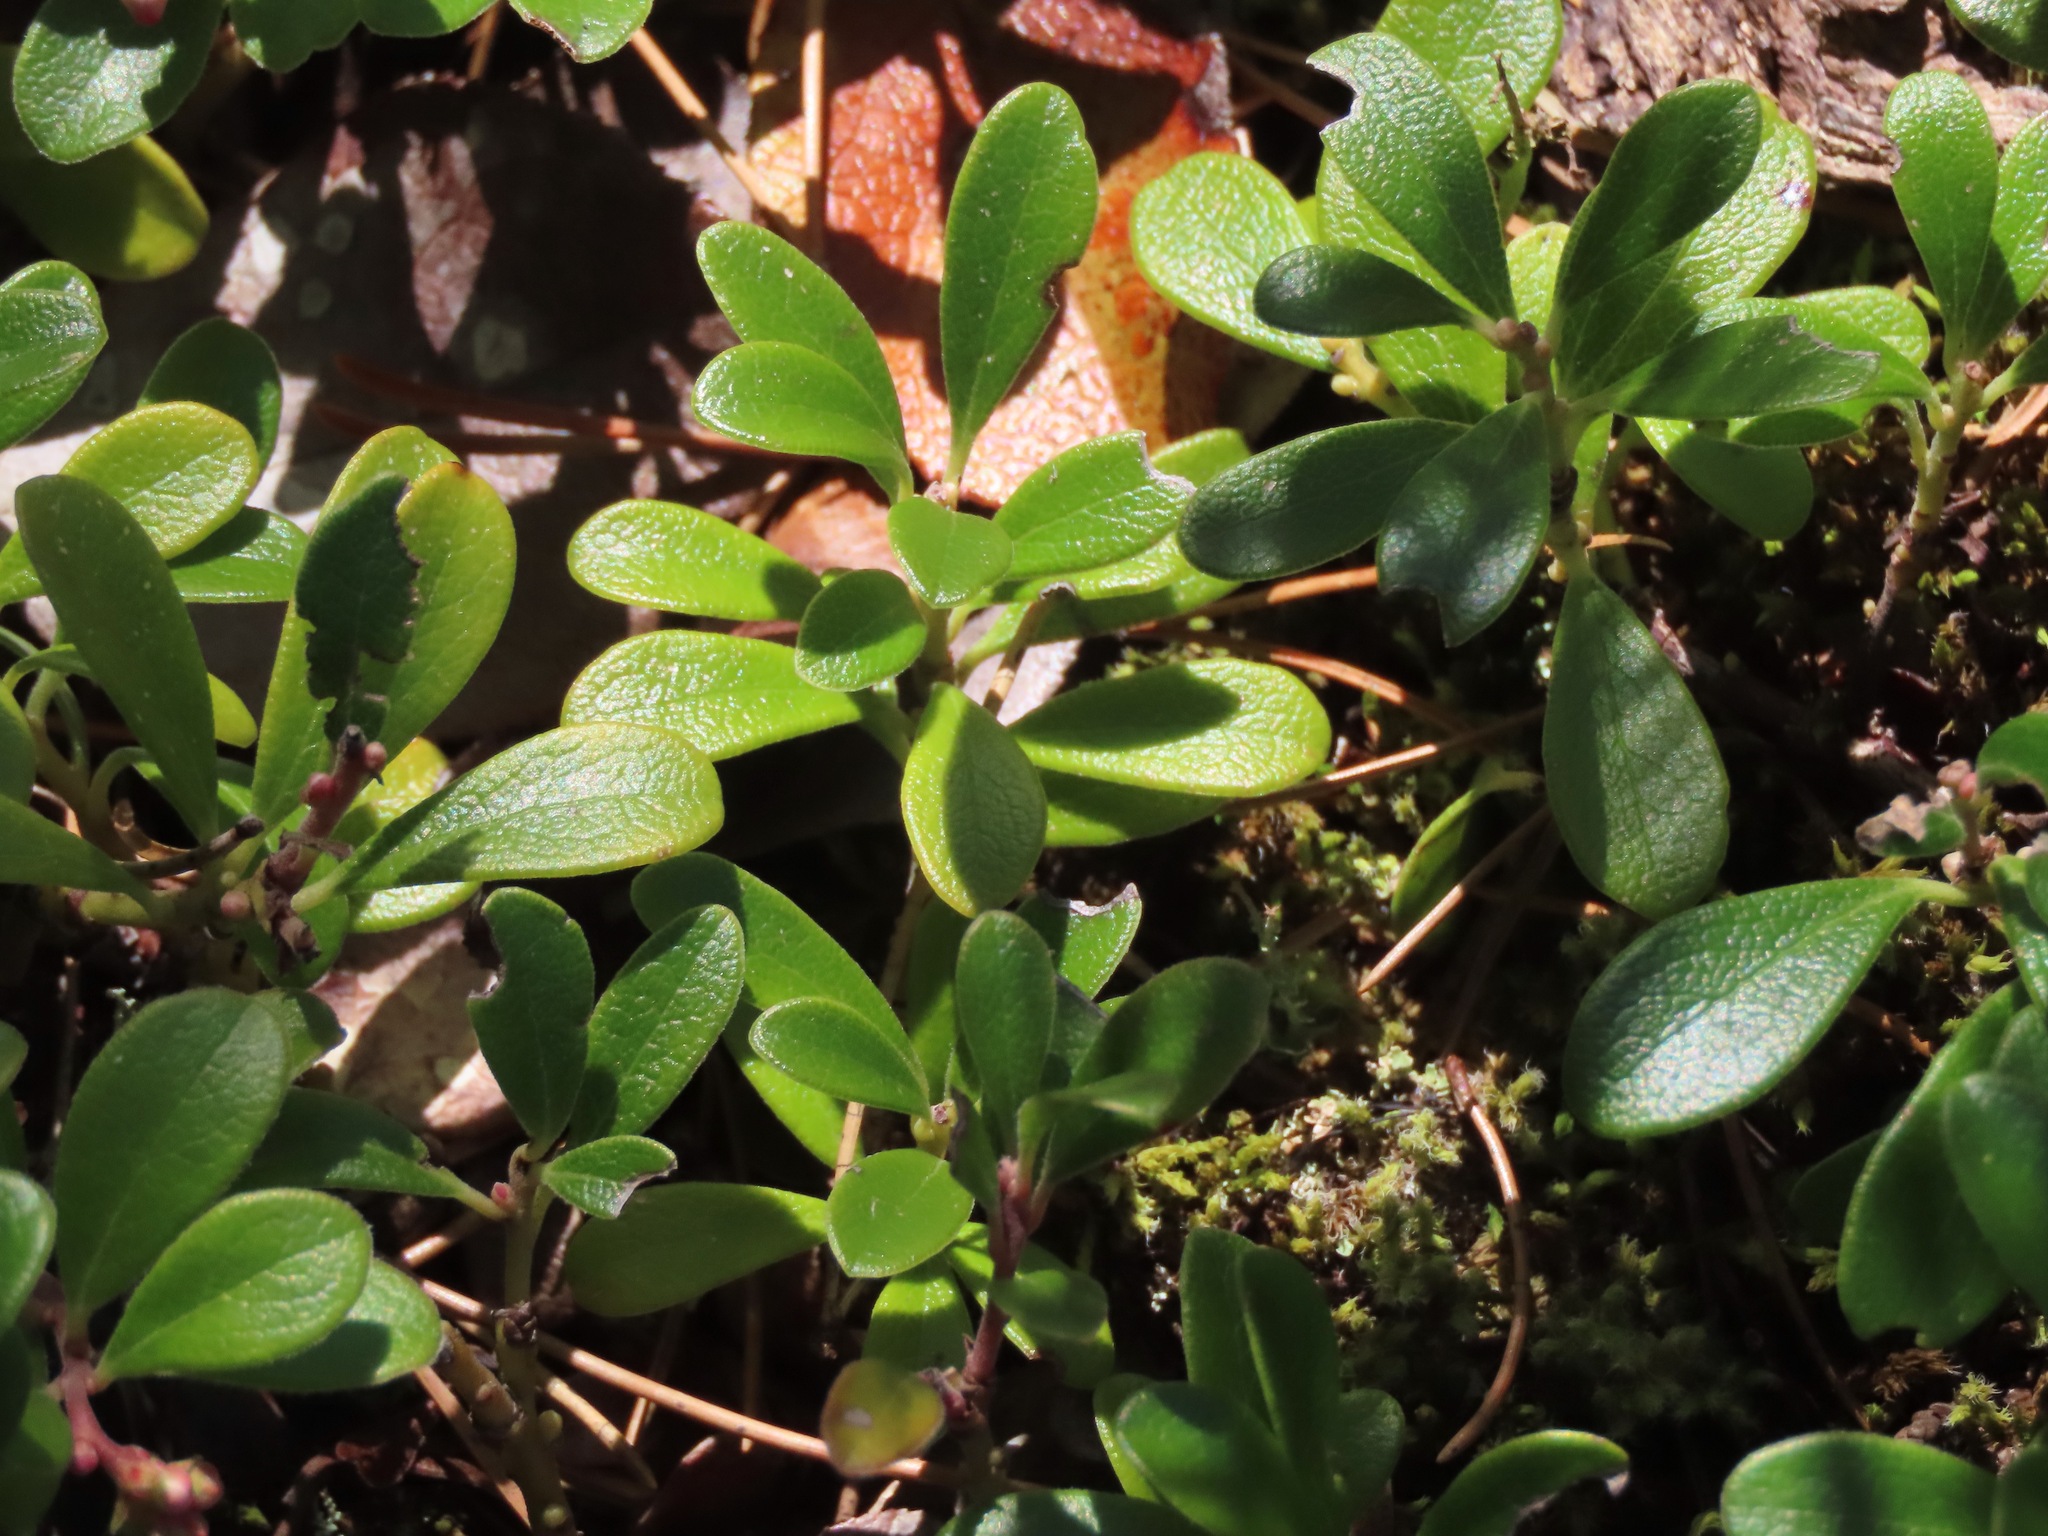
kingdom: Plantae
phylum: Tracheophyta
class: Magnoliopsida
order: Ericales
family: Ericaceae
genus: Arctostaphylos
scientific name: Arctostaphylos uva-ursi
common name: Bearberry
